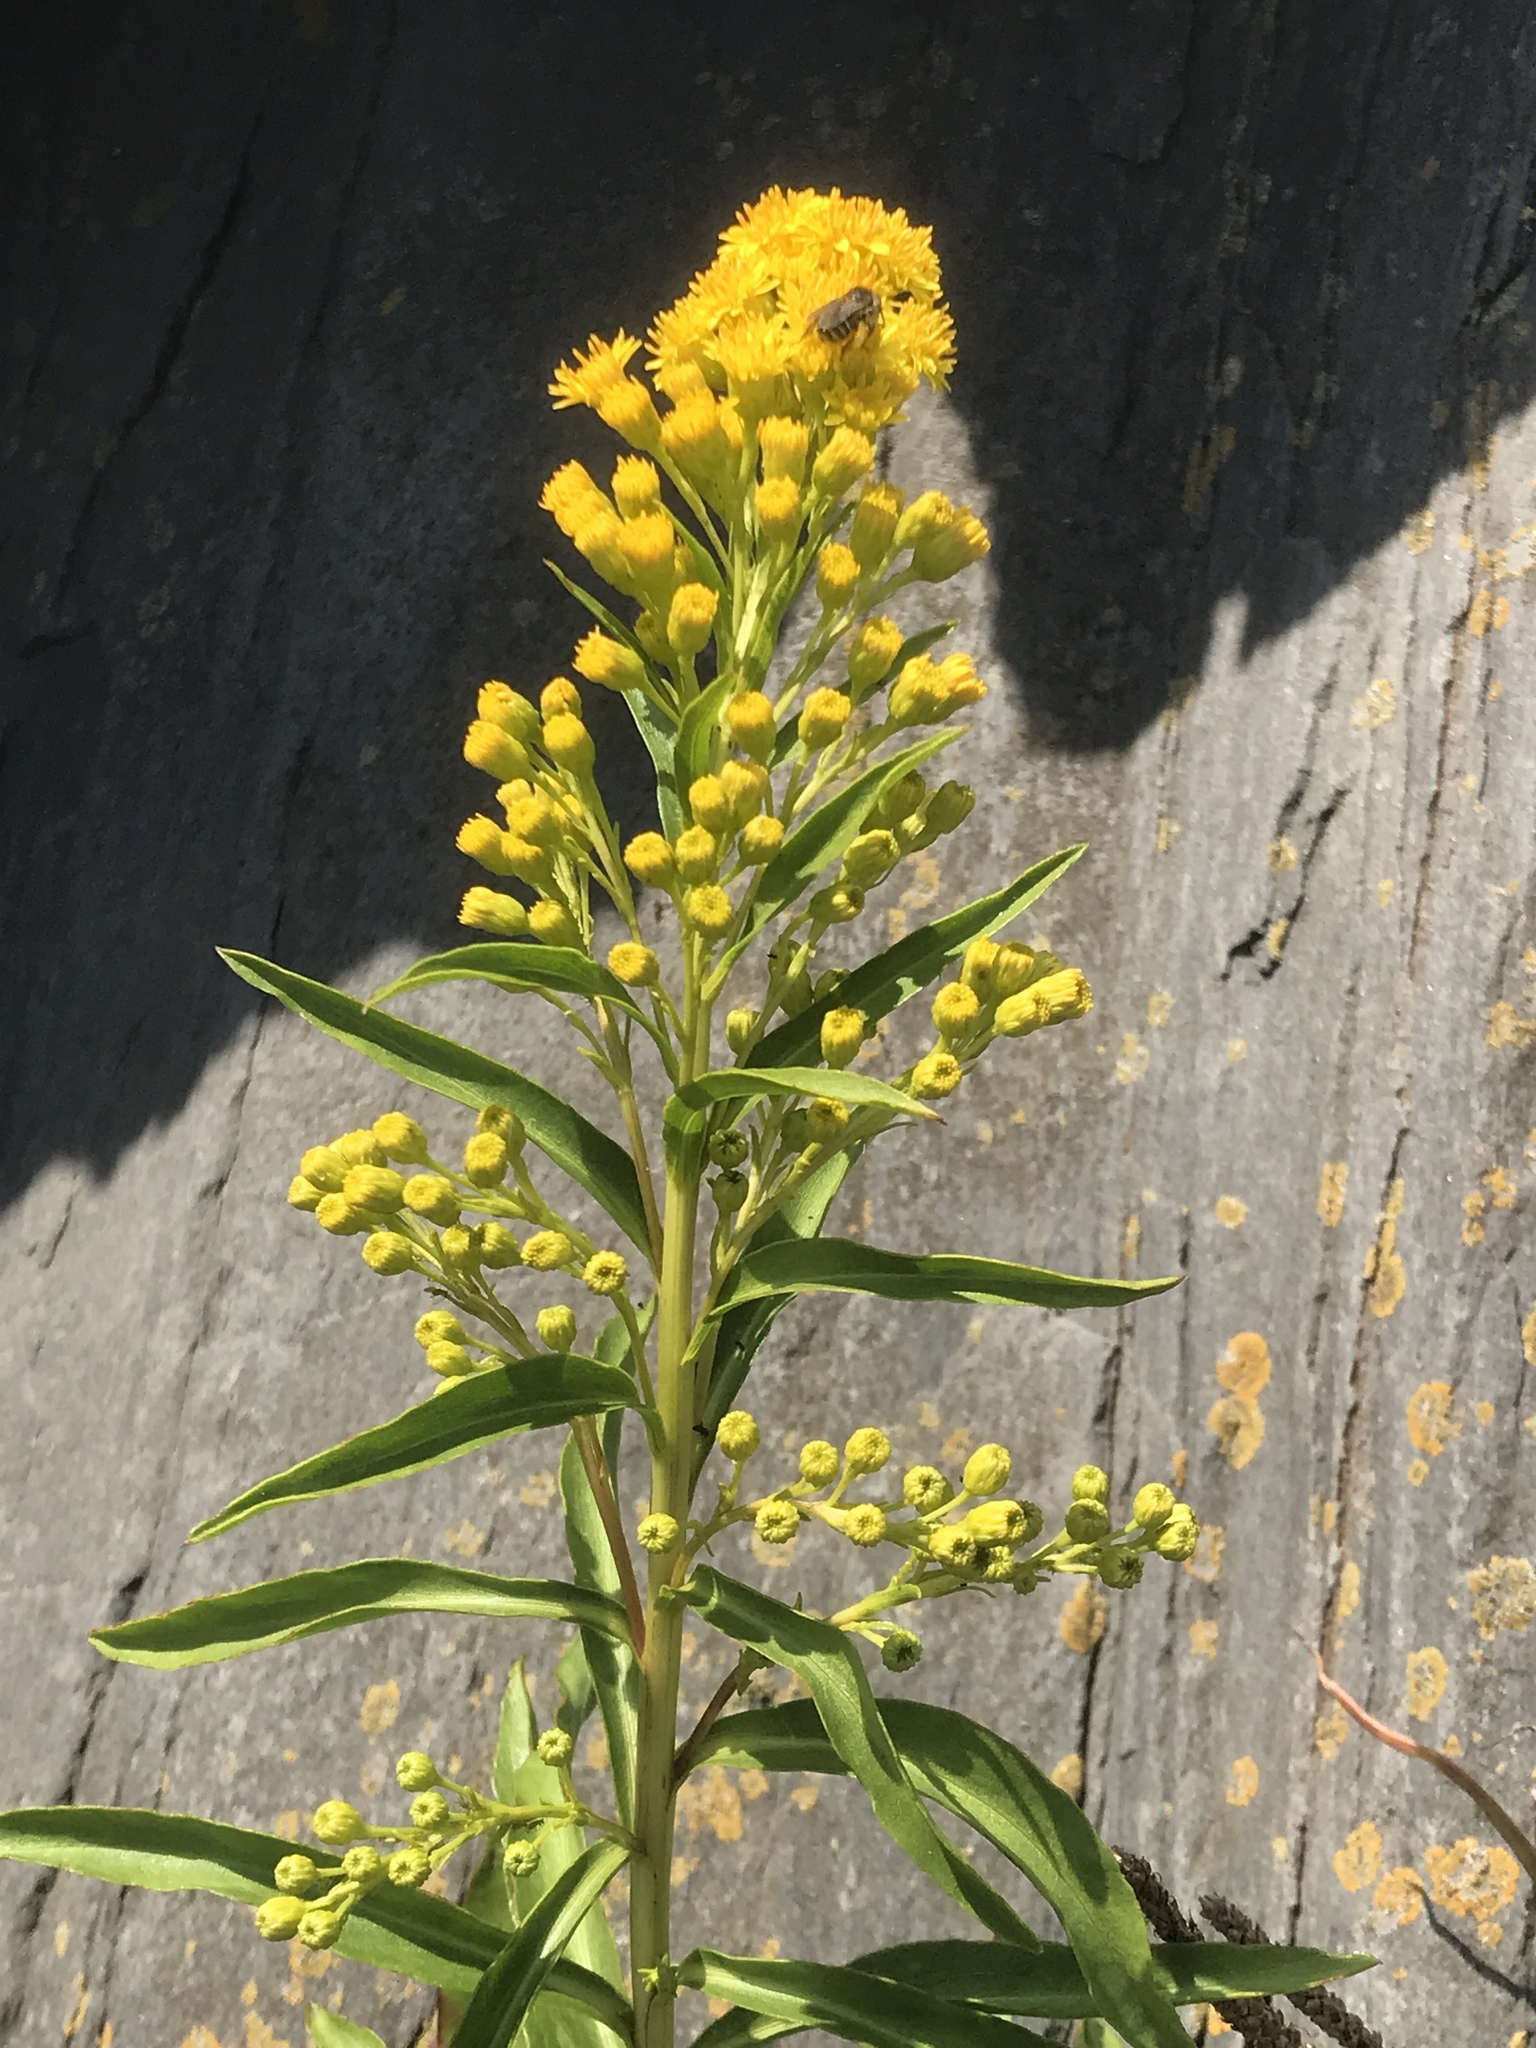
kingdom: Plantae
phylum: Tracheophyta
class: Magnoliopsida
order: Asterales
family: Asteraceae
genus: Solidago
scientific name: Solidago sempervirens
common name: Salt-marsh goldenrod
